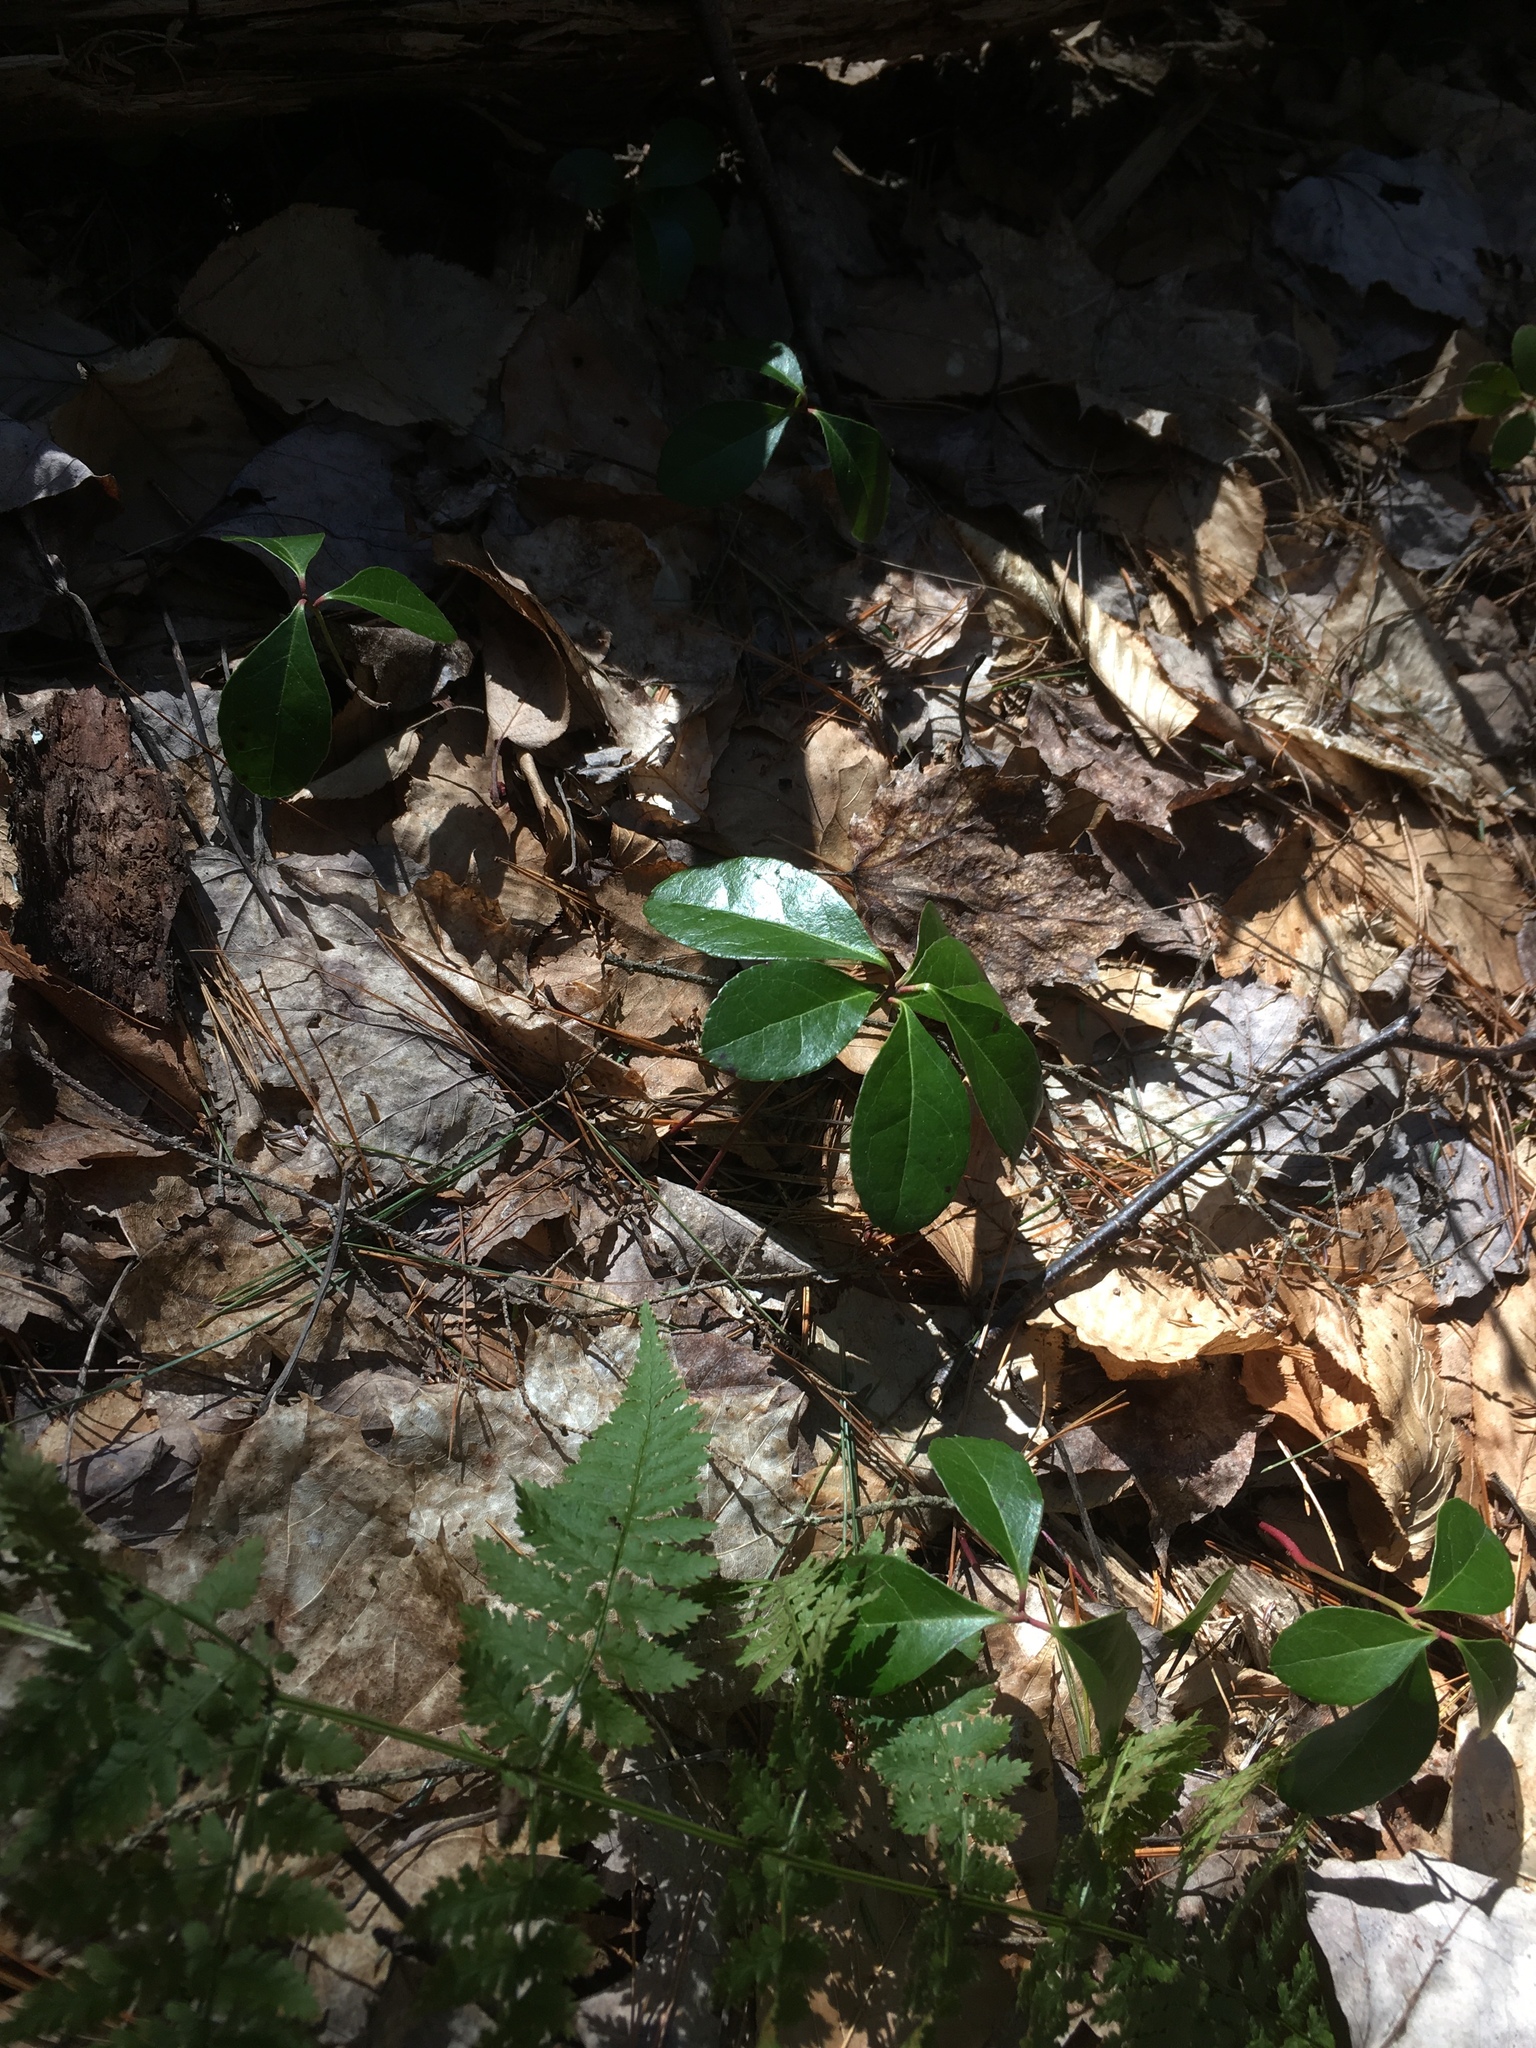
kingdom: Plantae
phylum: Tracheophyta
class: Magnoliopsida
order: Ericales
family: Ericaceae
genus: Gaultheria
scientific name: Gaultheria procumbens
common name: Checkerberry
